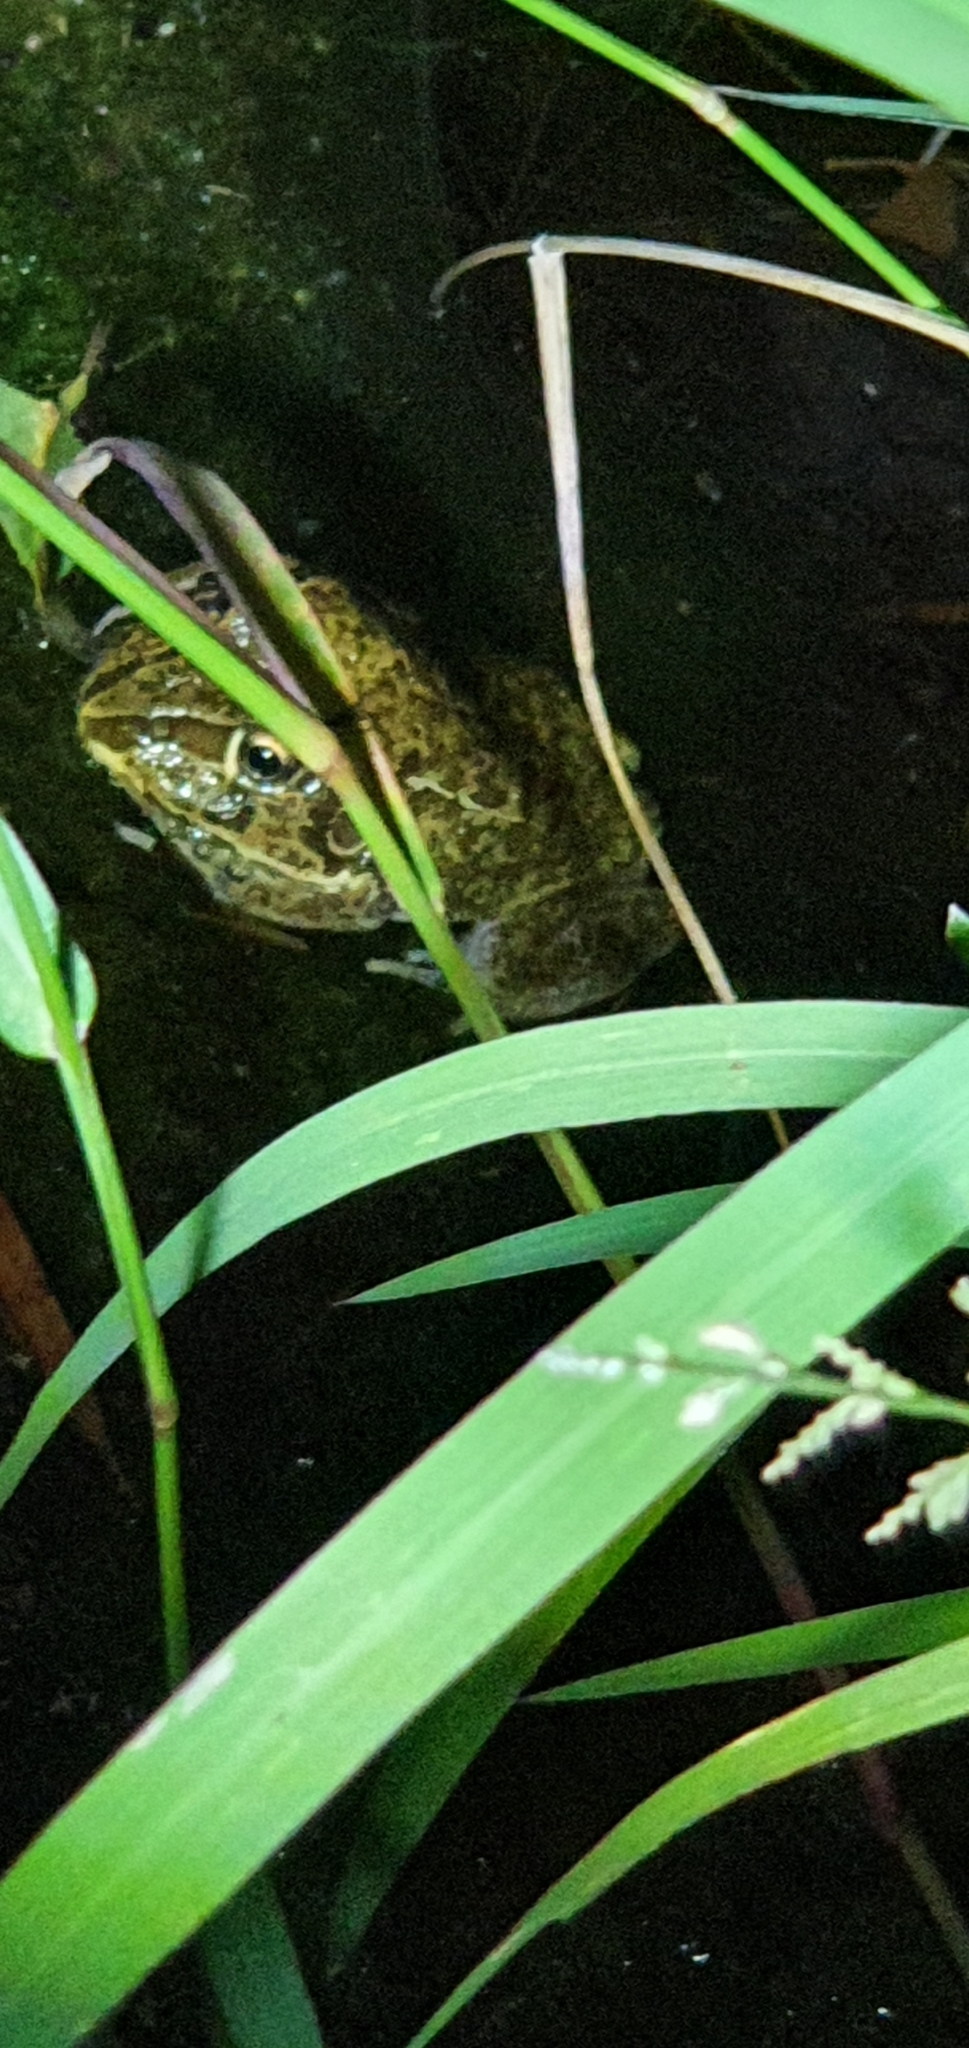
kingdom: Animalia
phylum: Chordata
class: Amphibia
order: Anura
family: Pelodryadidae
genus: Ranoidea
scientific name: Ranoidea novaehollandiae
